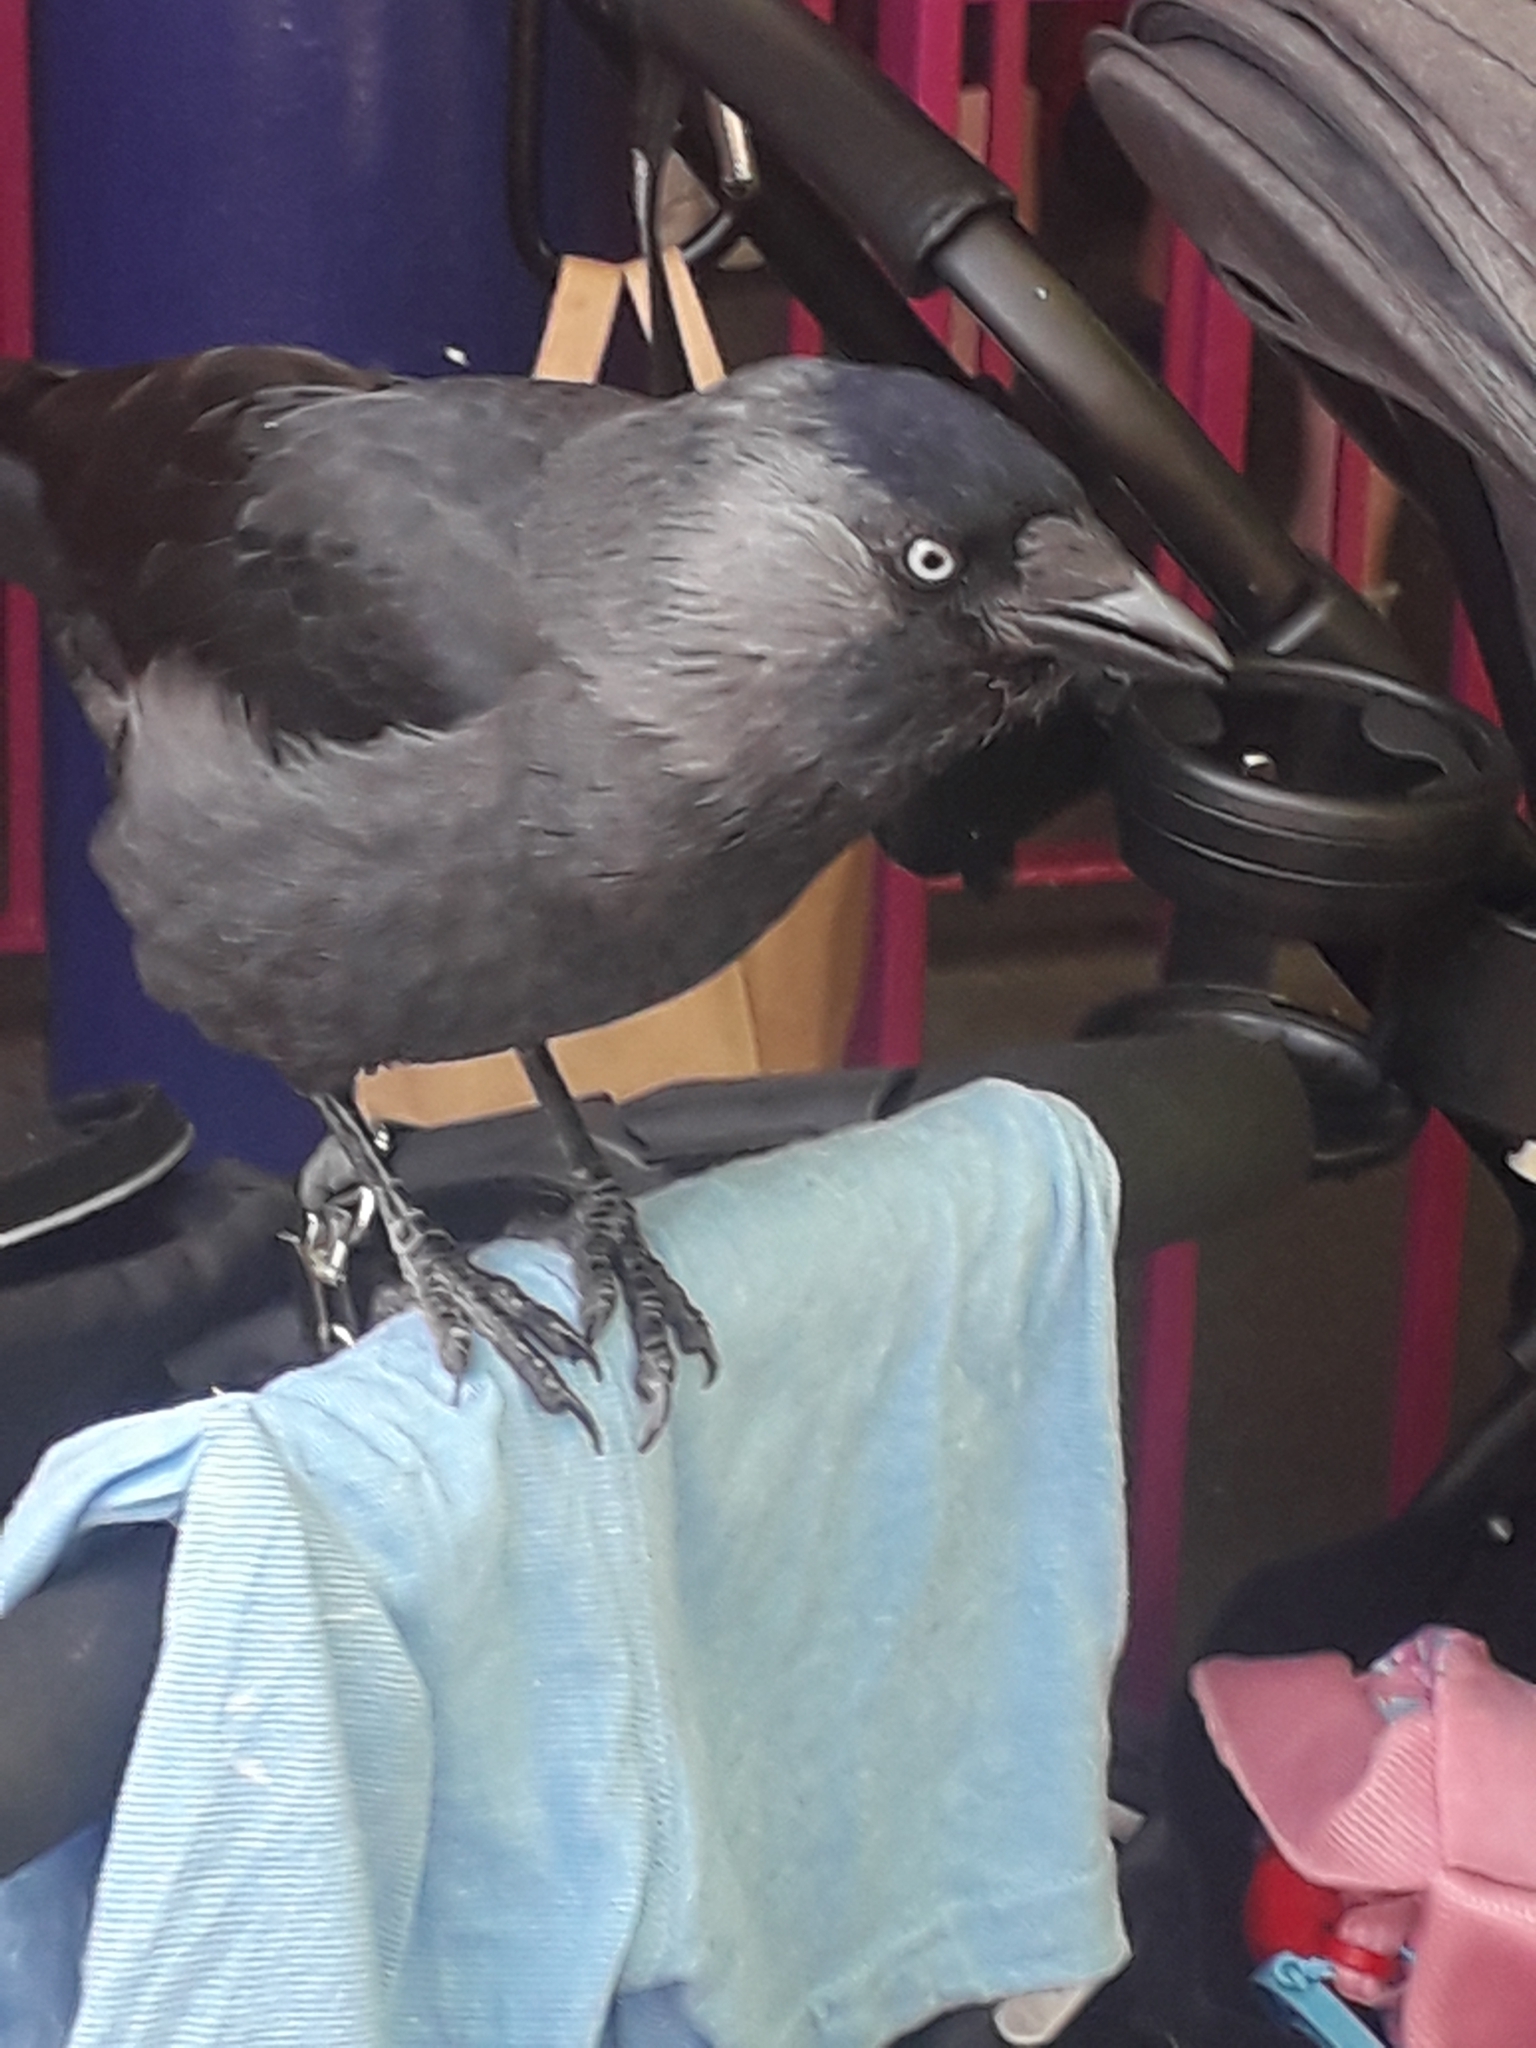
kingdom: Animalia
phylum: Chordata
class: Aves
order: Passeriformes
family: Corvidae
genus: Coloeus
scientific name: Coloeus monedula
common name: Western jackdaw
